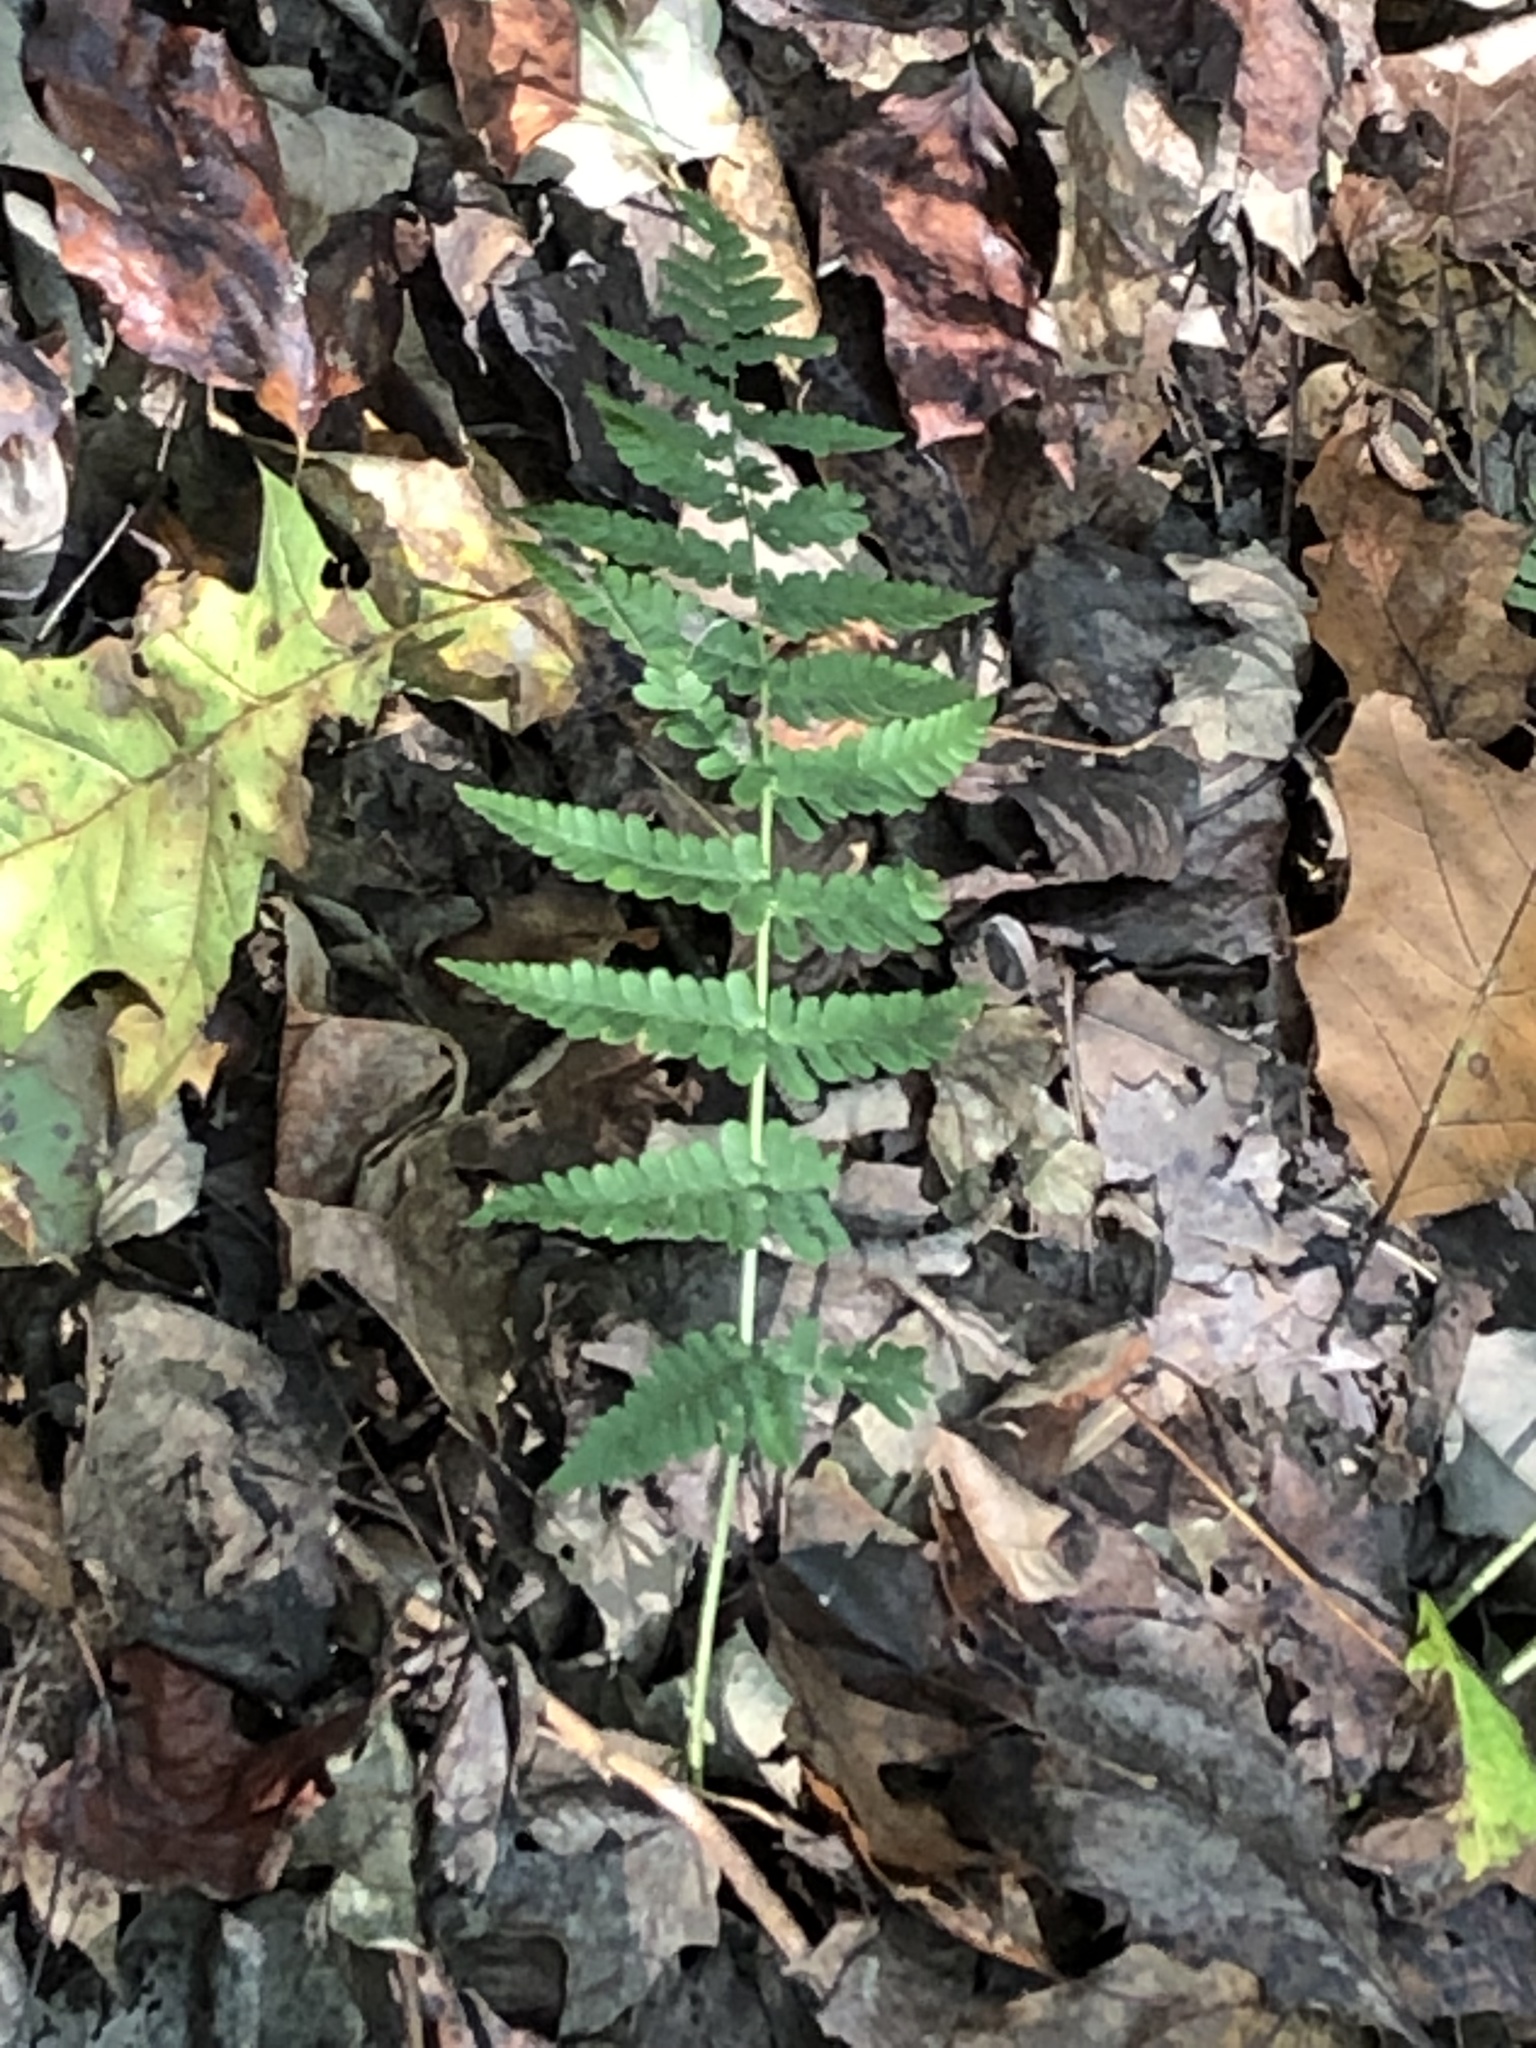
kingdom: Plantae
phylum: Tracheophyta
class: Polypodiopsida
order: Polypodiales
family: Dryopteridaceae
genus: Dryopteris
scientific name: Dryopteris marginalis
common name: Marginal wood fern
